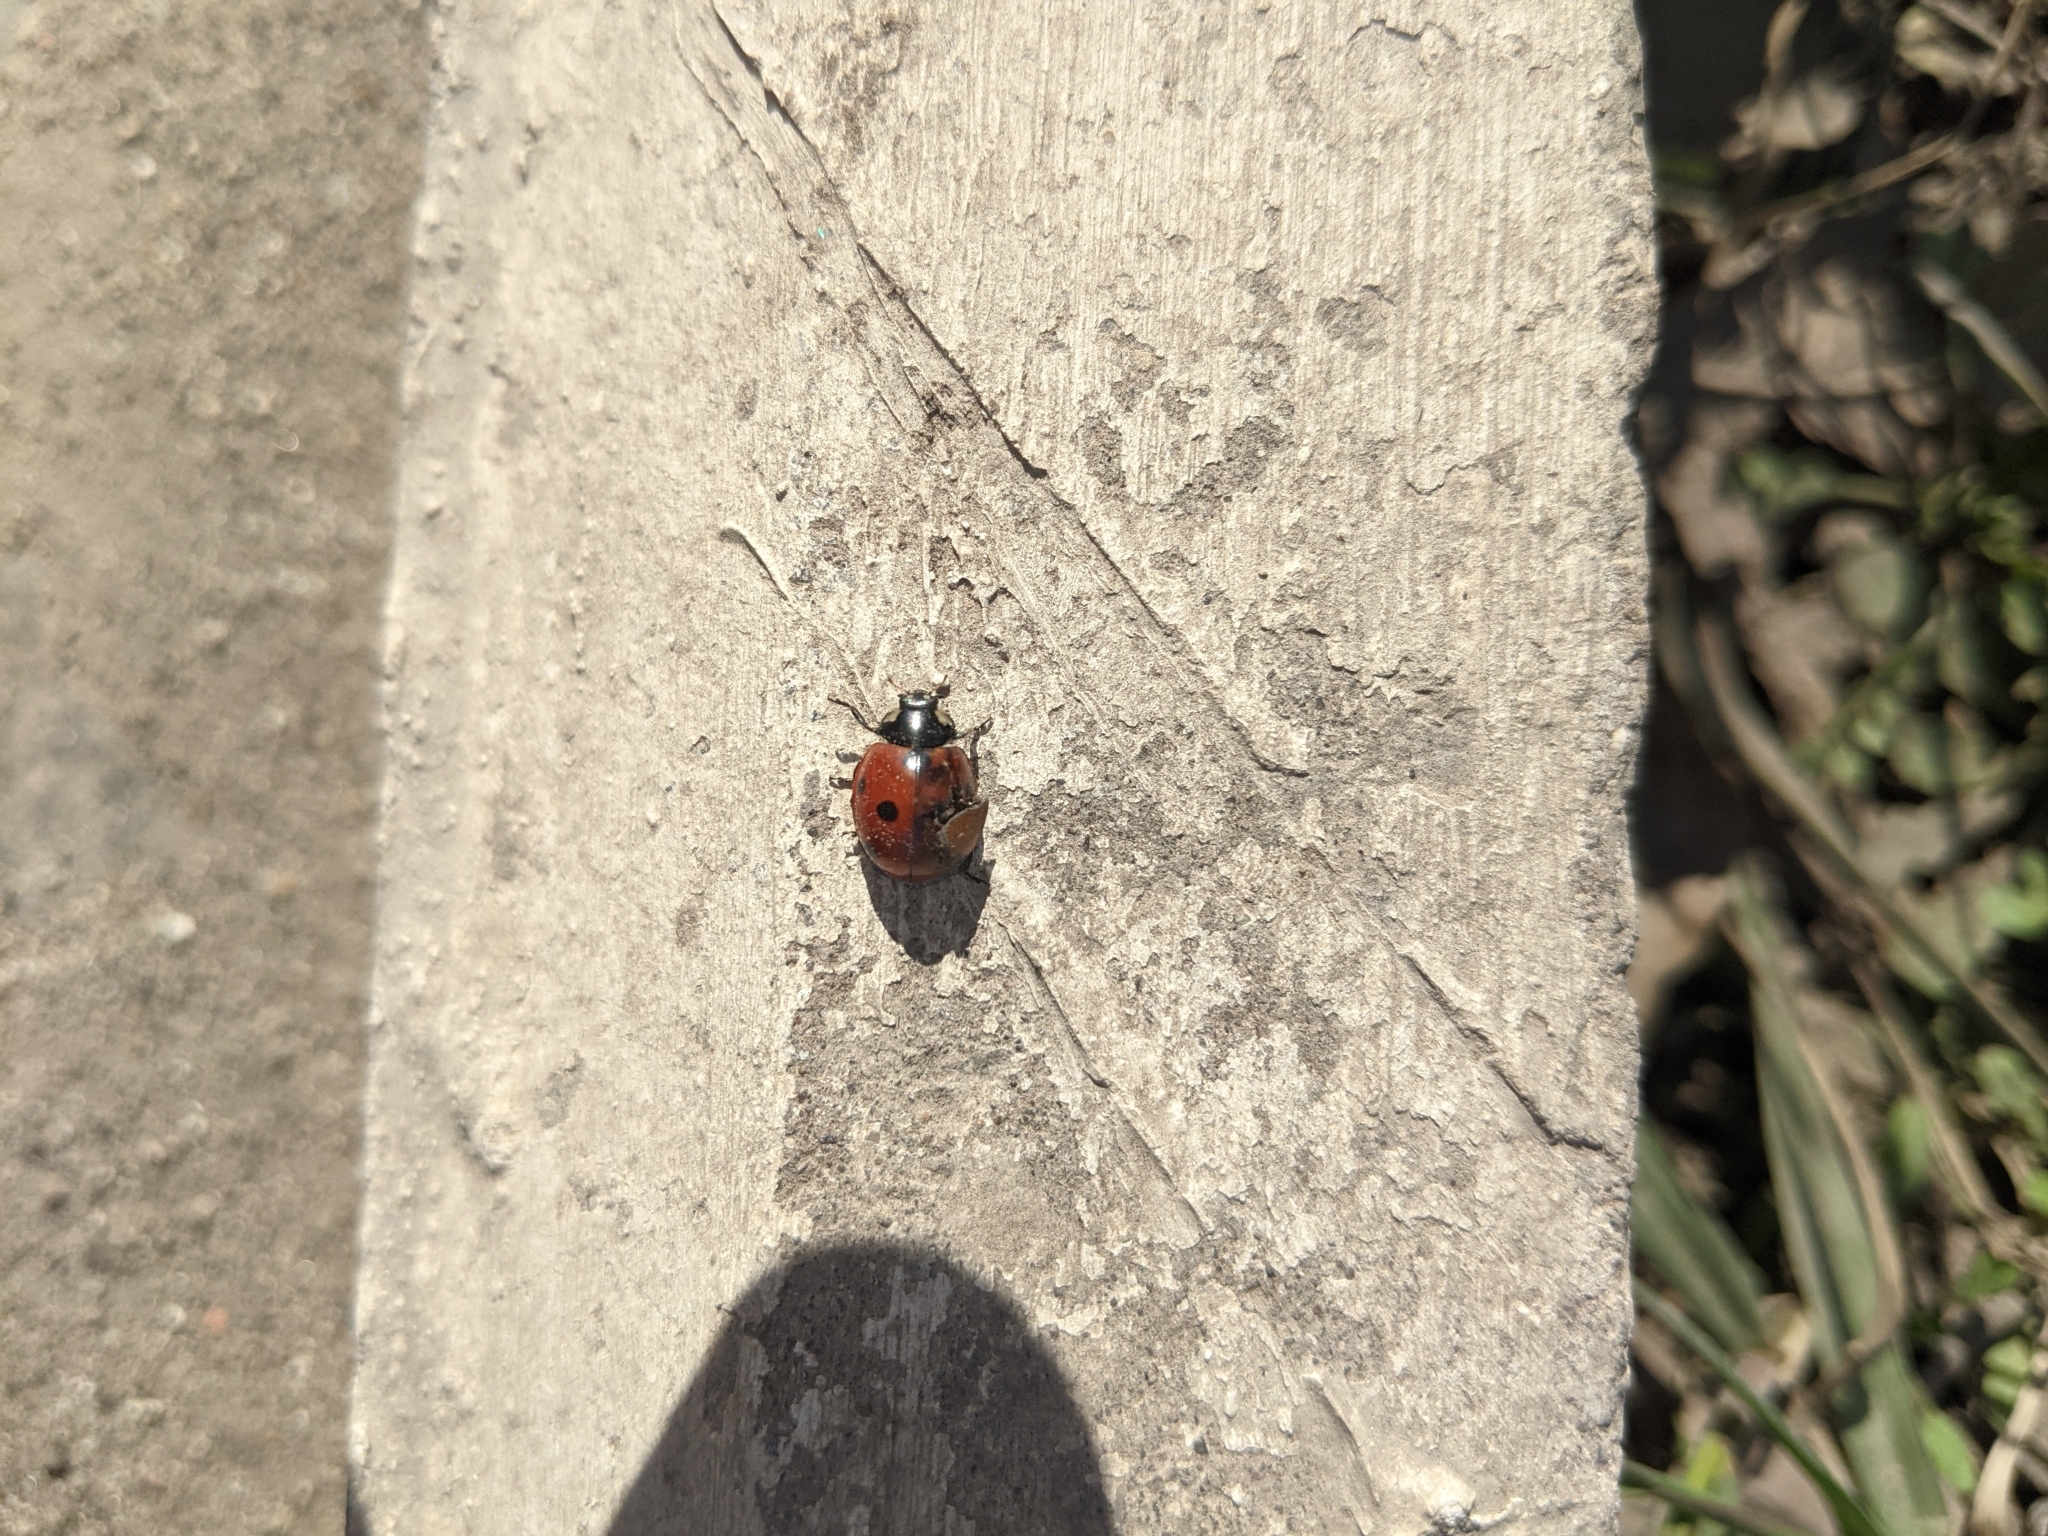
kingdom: Animalia
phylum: Arthropoda
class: Insecta
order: Coleoptera
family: Coccinellidae
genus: Coccinella
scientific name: Coccinella septempunctata
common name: Sevenspotted lady beetle
